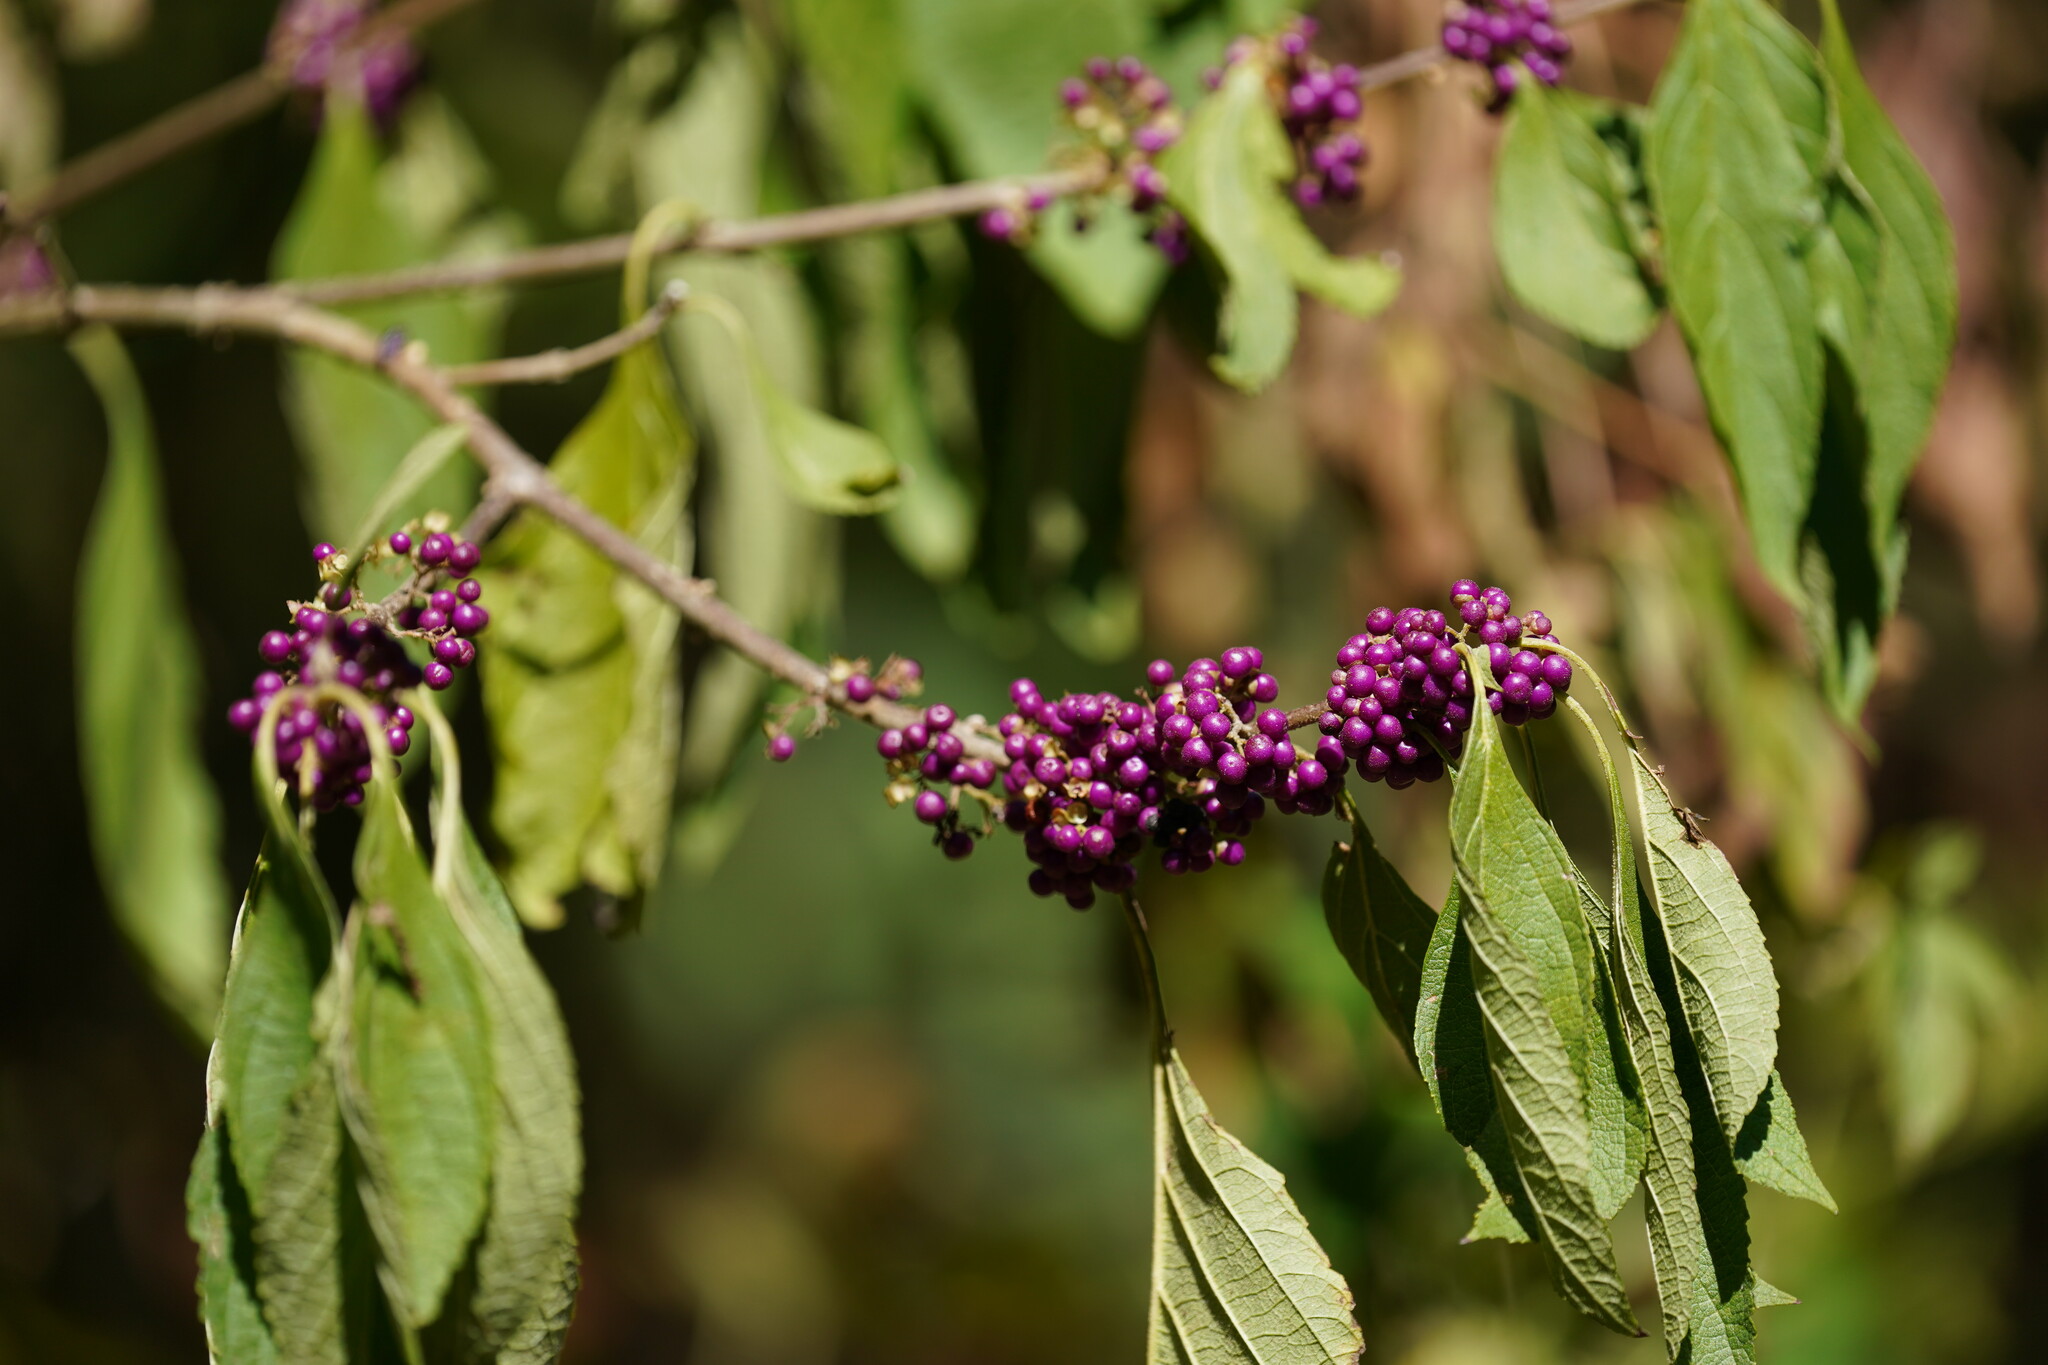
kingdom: Plantae
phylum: Tracheophyta
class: Magnoliopsida
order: Lamiales
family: Lamiaceae
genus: Callicarpa
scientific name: Callicarpa americana
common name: American beautyberry
